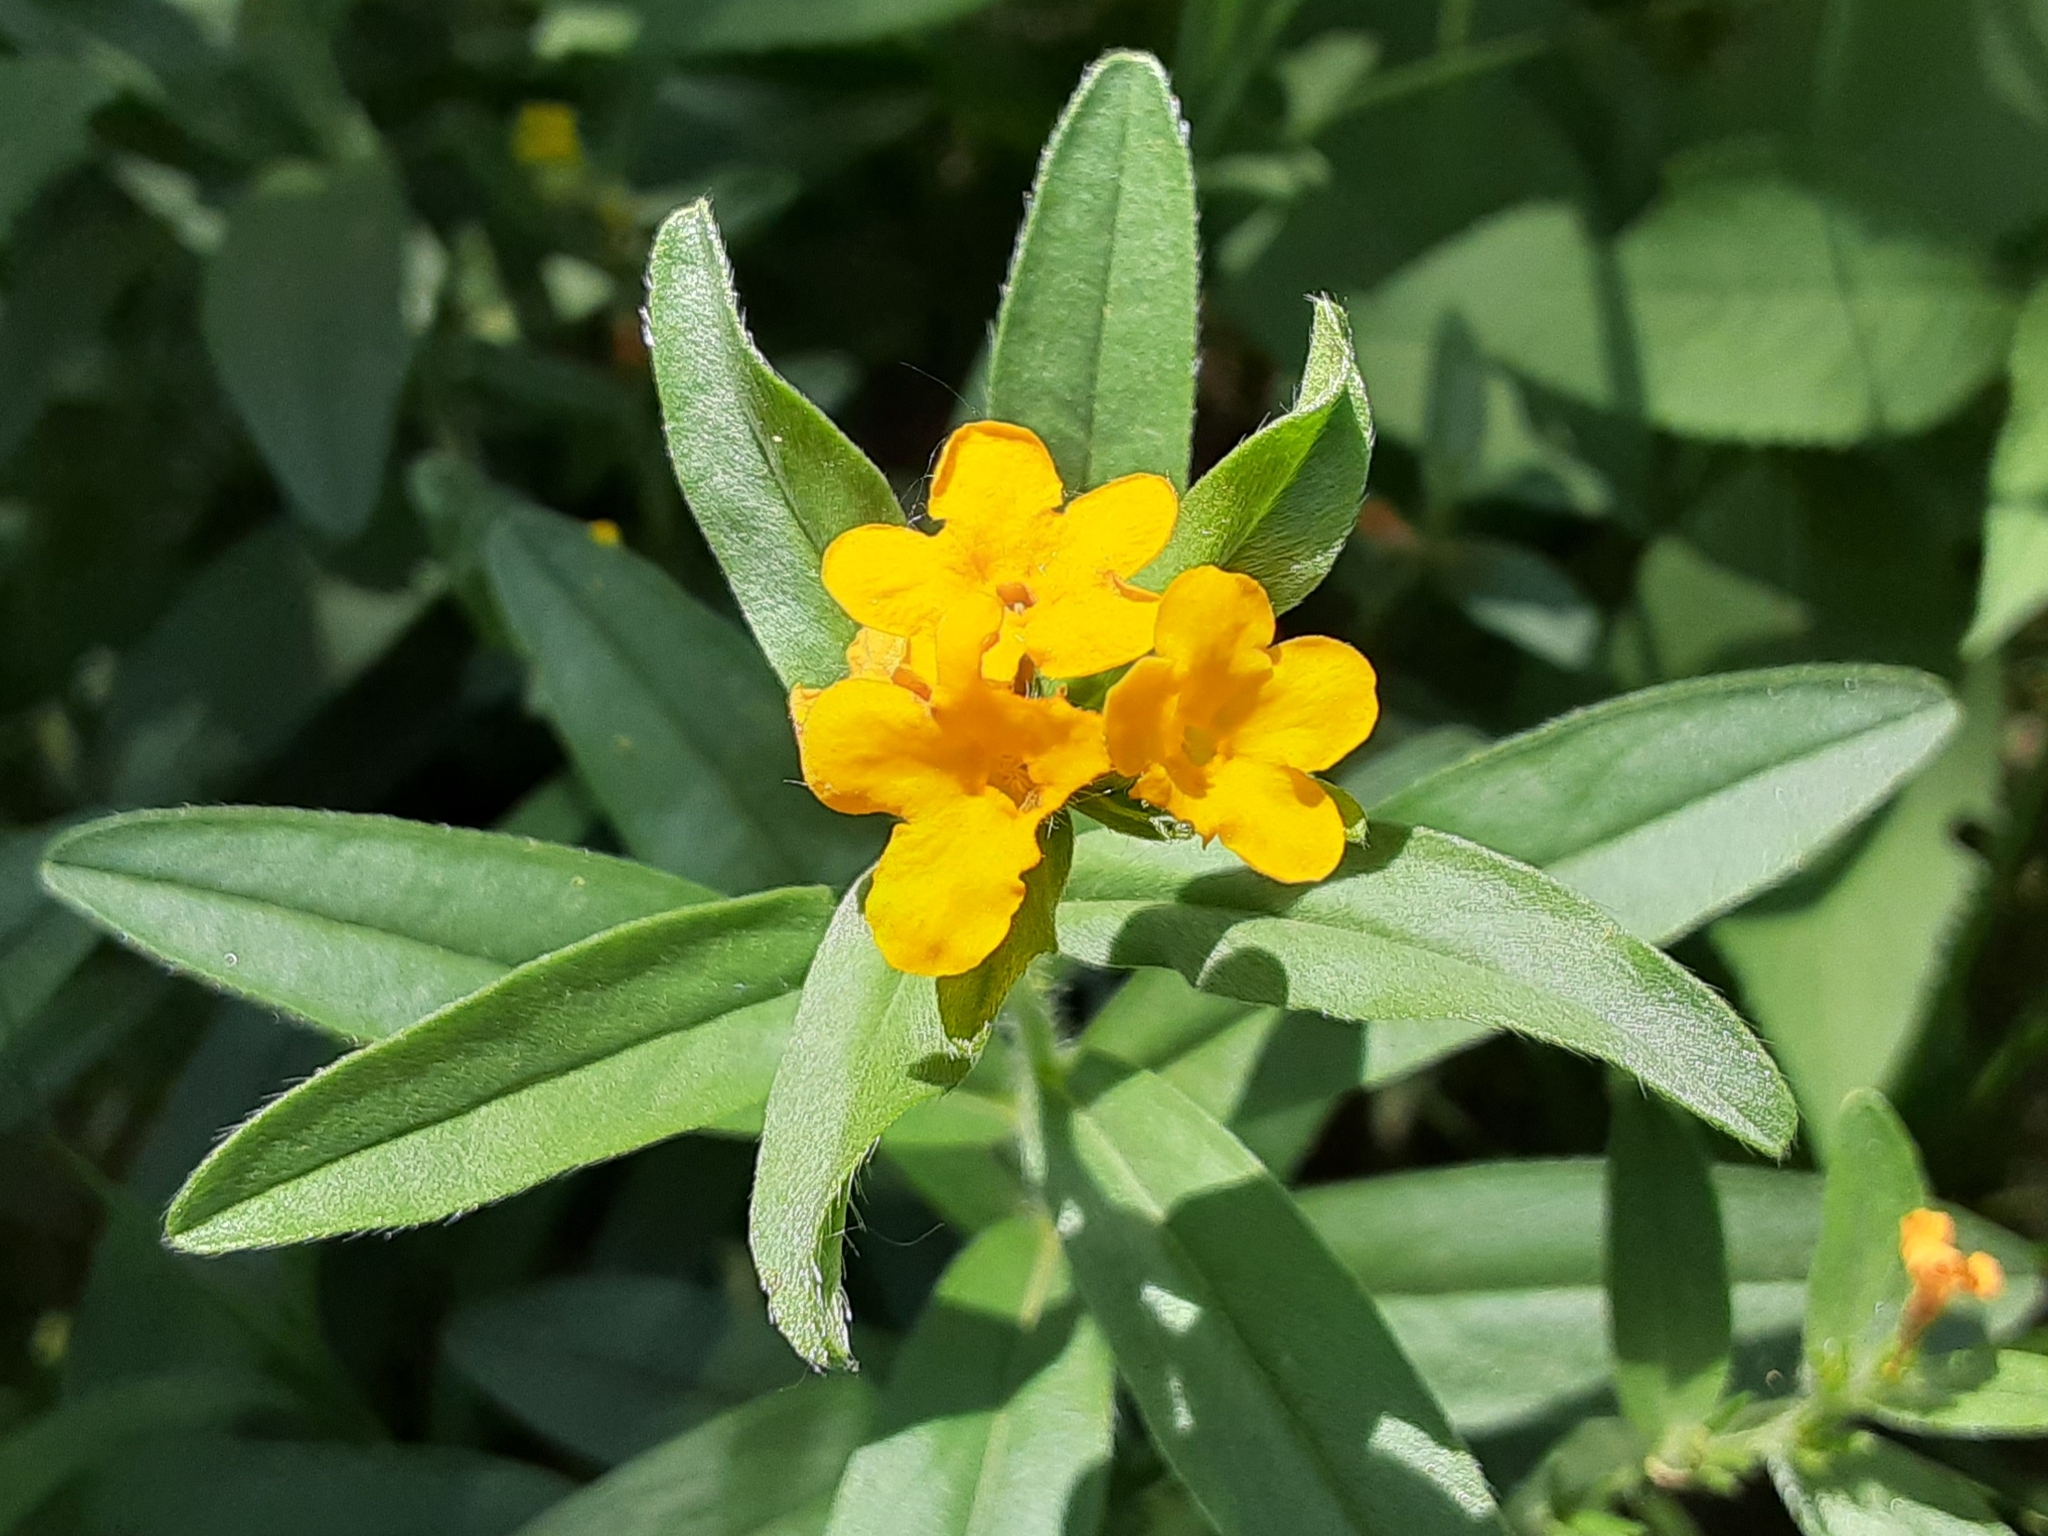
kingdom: Plantae
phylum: Tracheophyta
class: Magnoliopsida
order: Boraginales
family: Boraginaceae
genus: Lithospermum
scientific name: Lithospermum canescens
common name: Hoary puccoon
